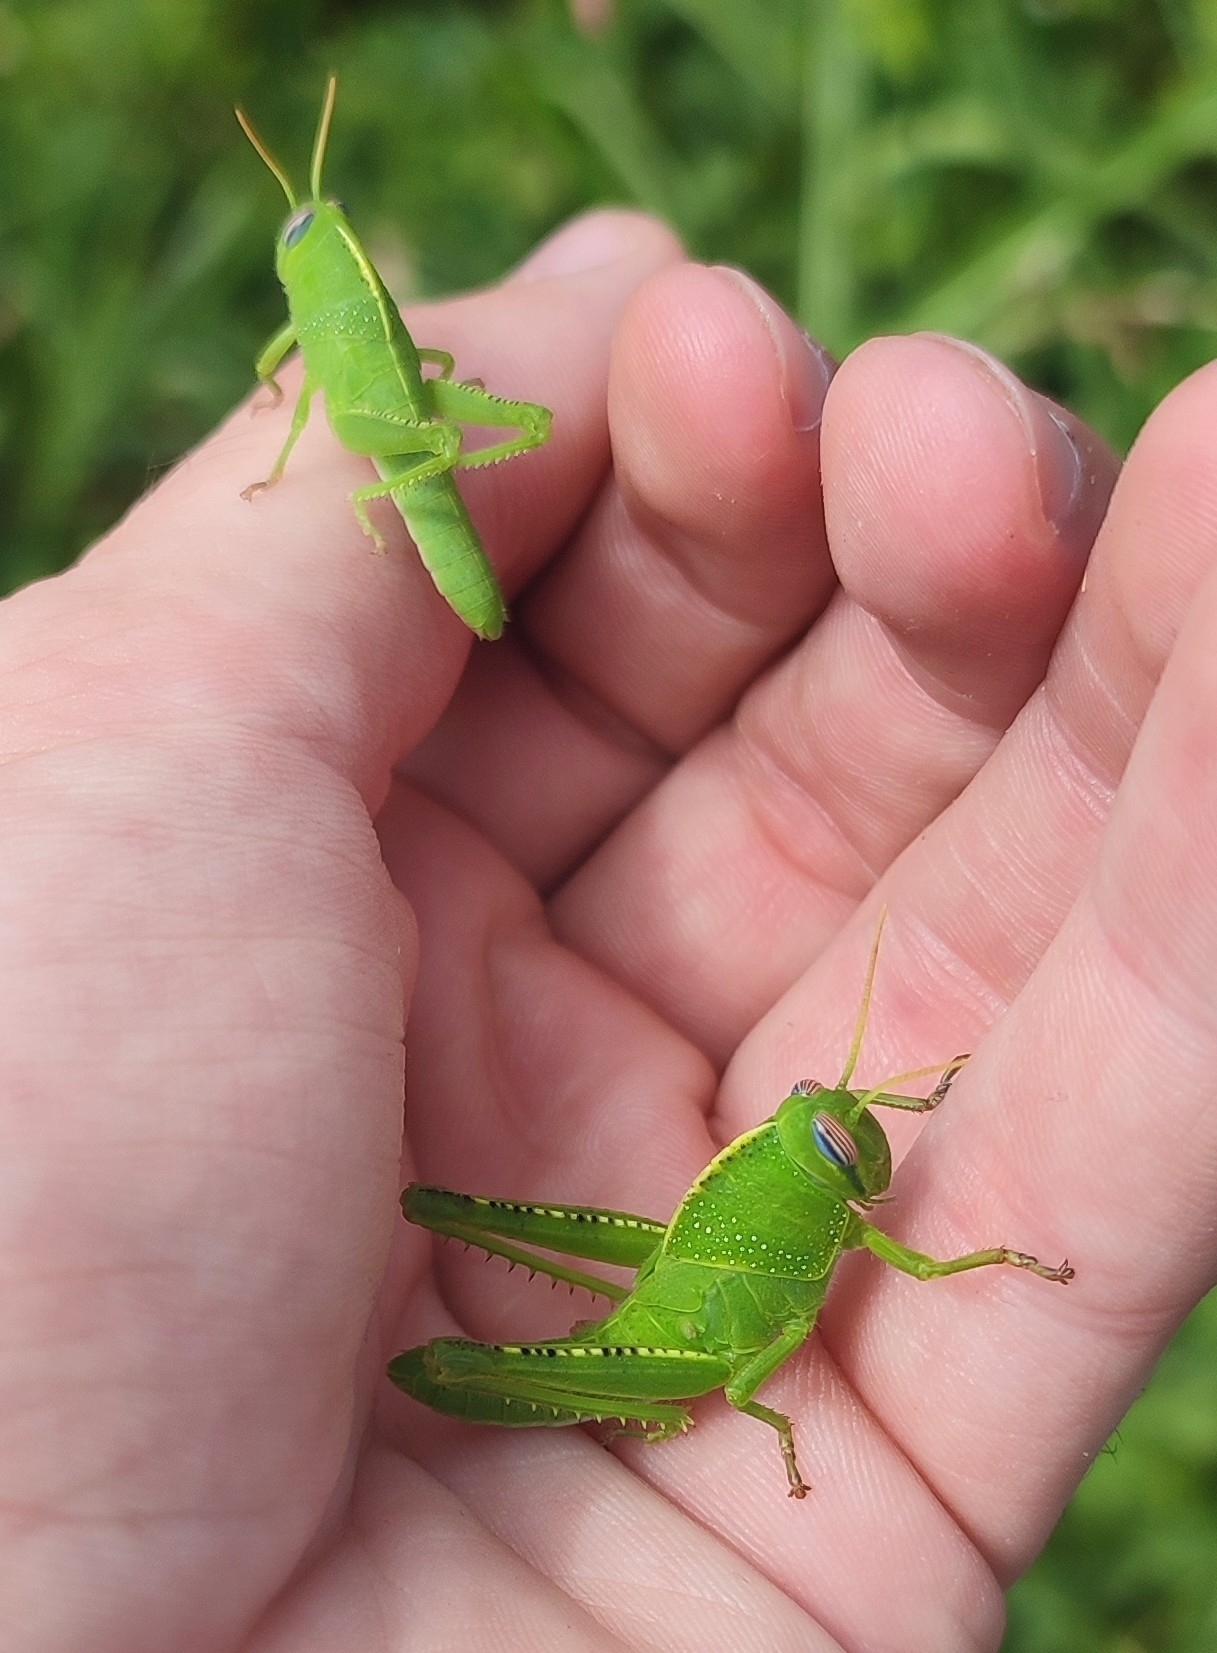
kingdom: Animalia
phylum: Arthropoda
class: Insecta
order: Orthoptera
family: Acrididae
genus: Anacridium
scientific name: Anacridium aegyptium
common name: Egyptian grasshopper
